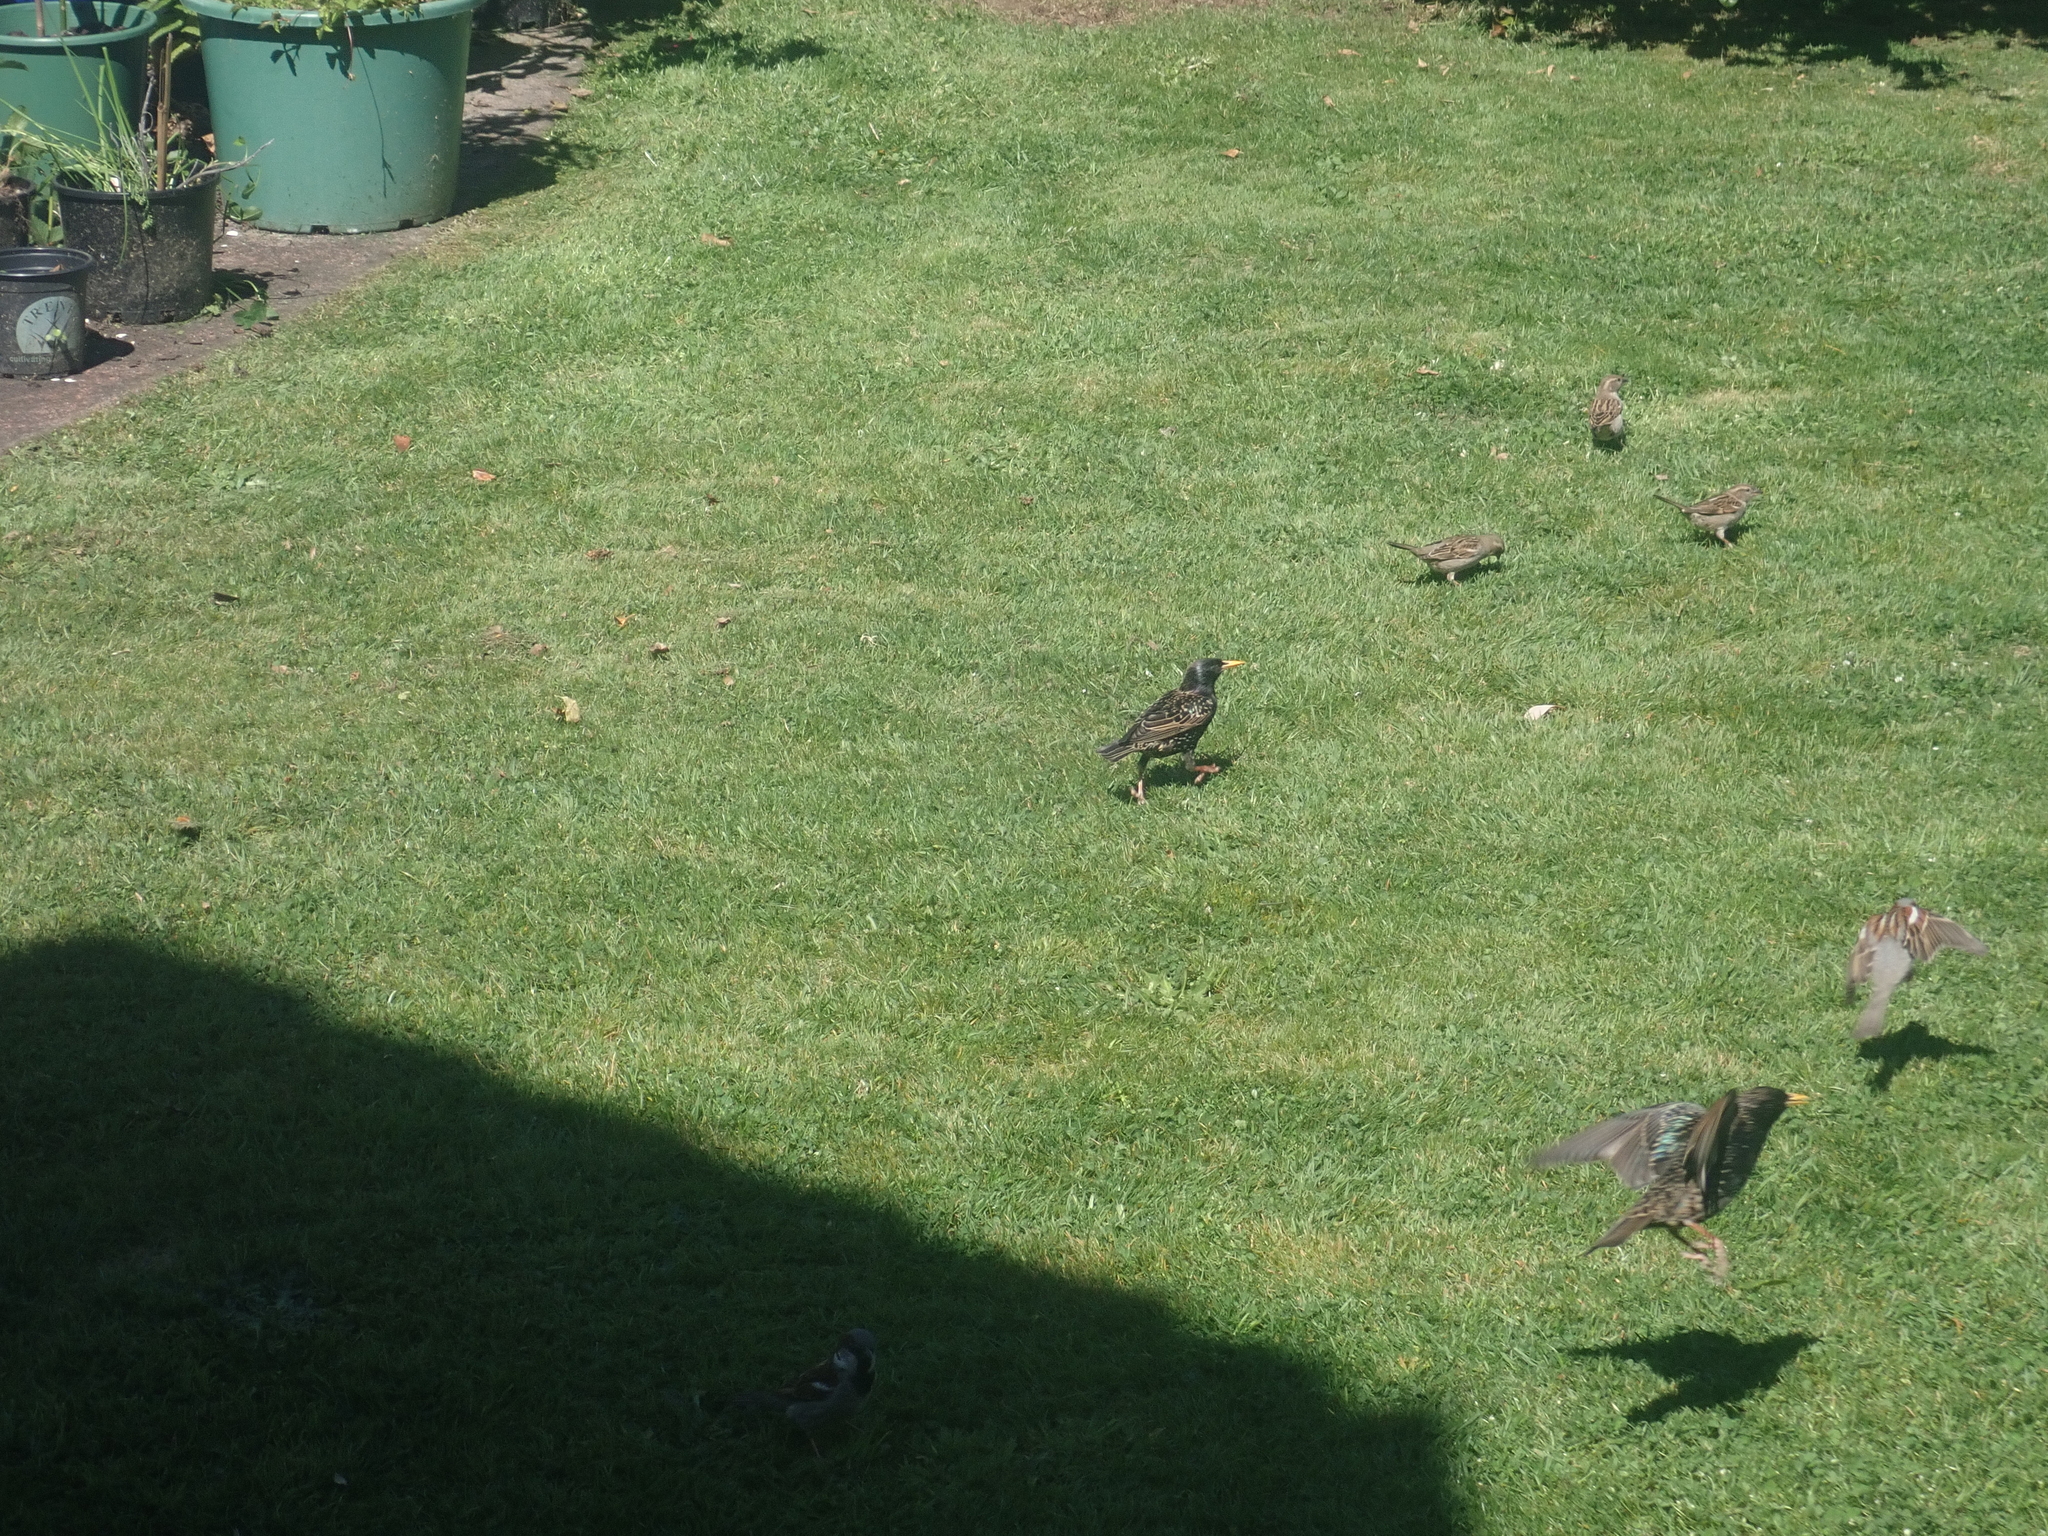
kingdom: Animalia
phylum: Chordata
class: Aves
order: Passeriformes
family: Sturnidae
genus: Sturnus
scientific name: Sturnus vulgaris
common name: Common starling
